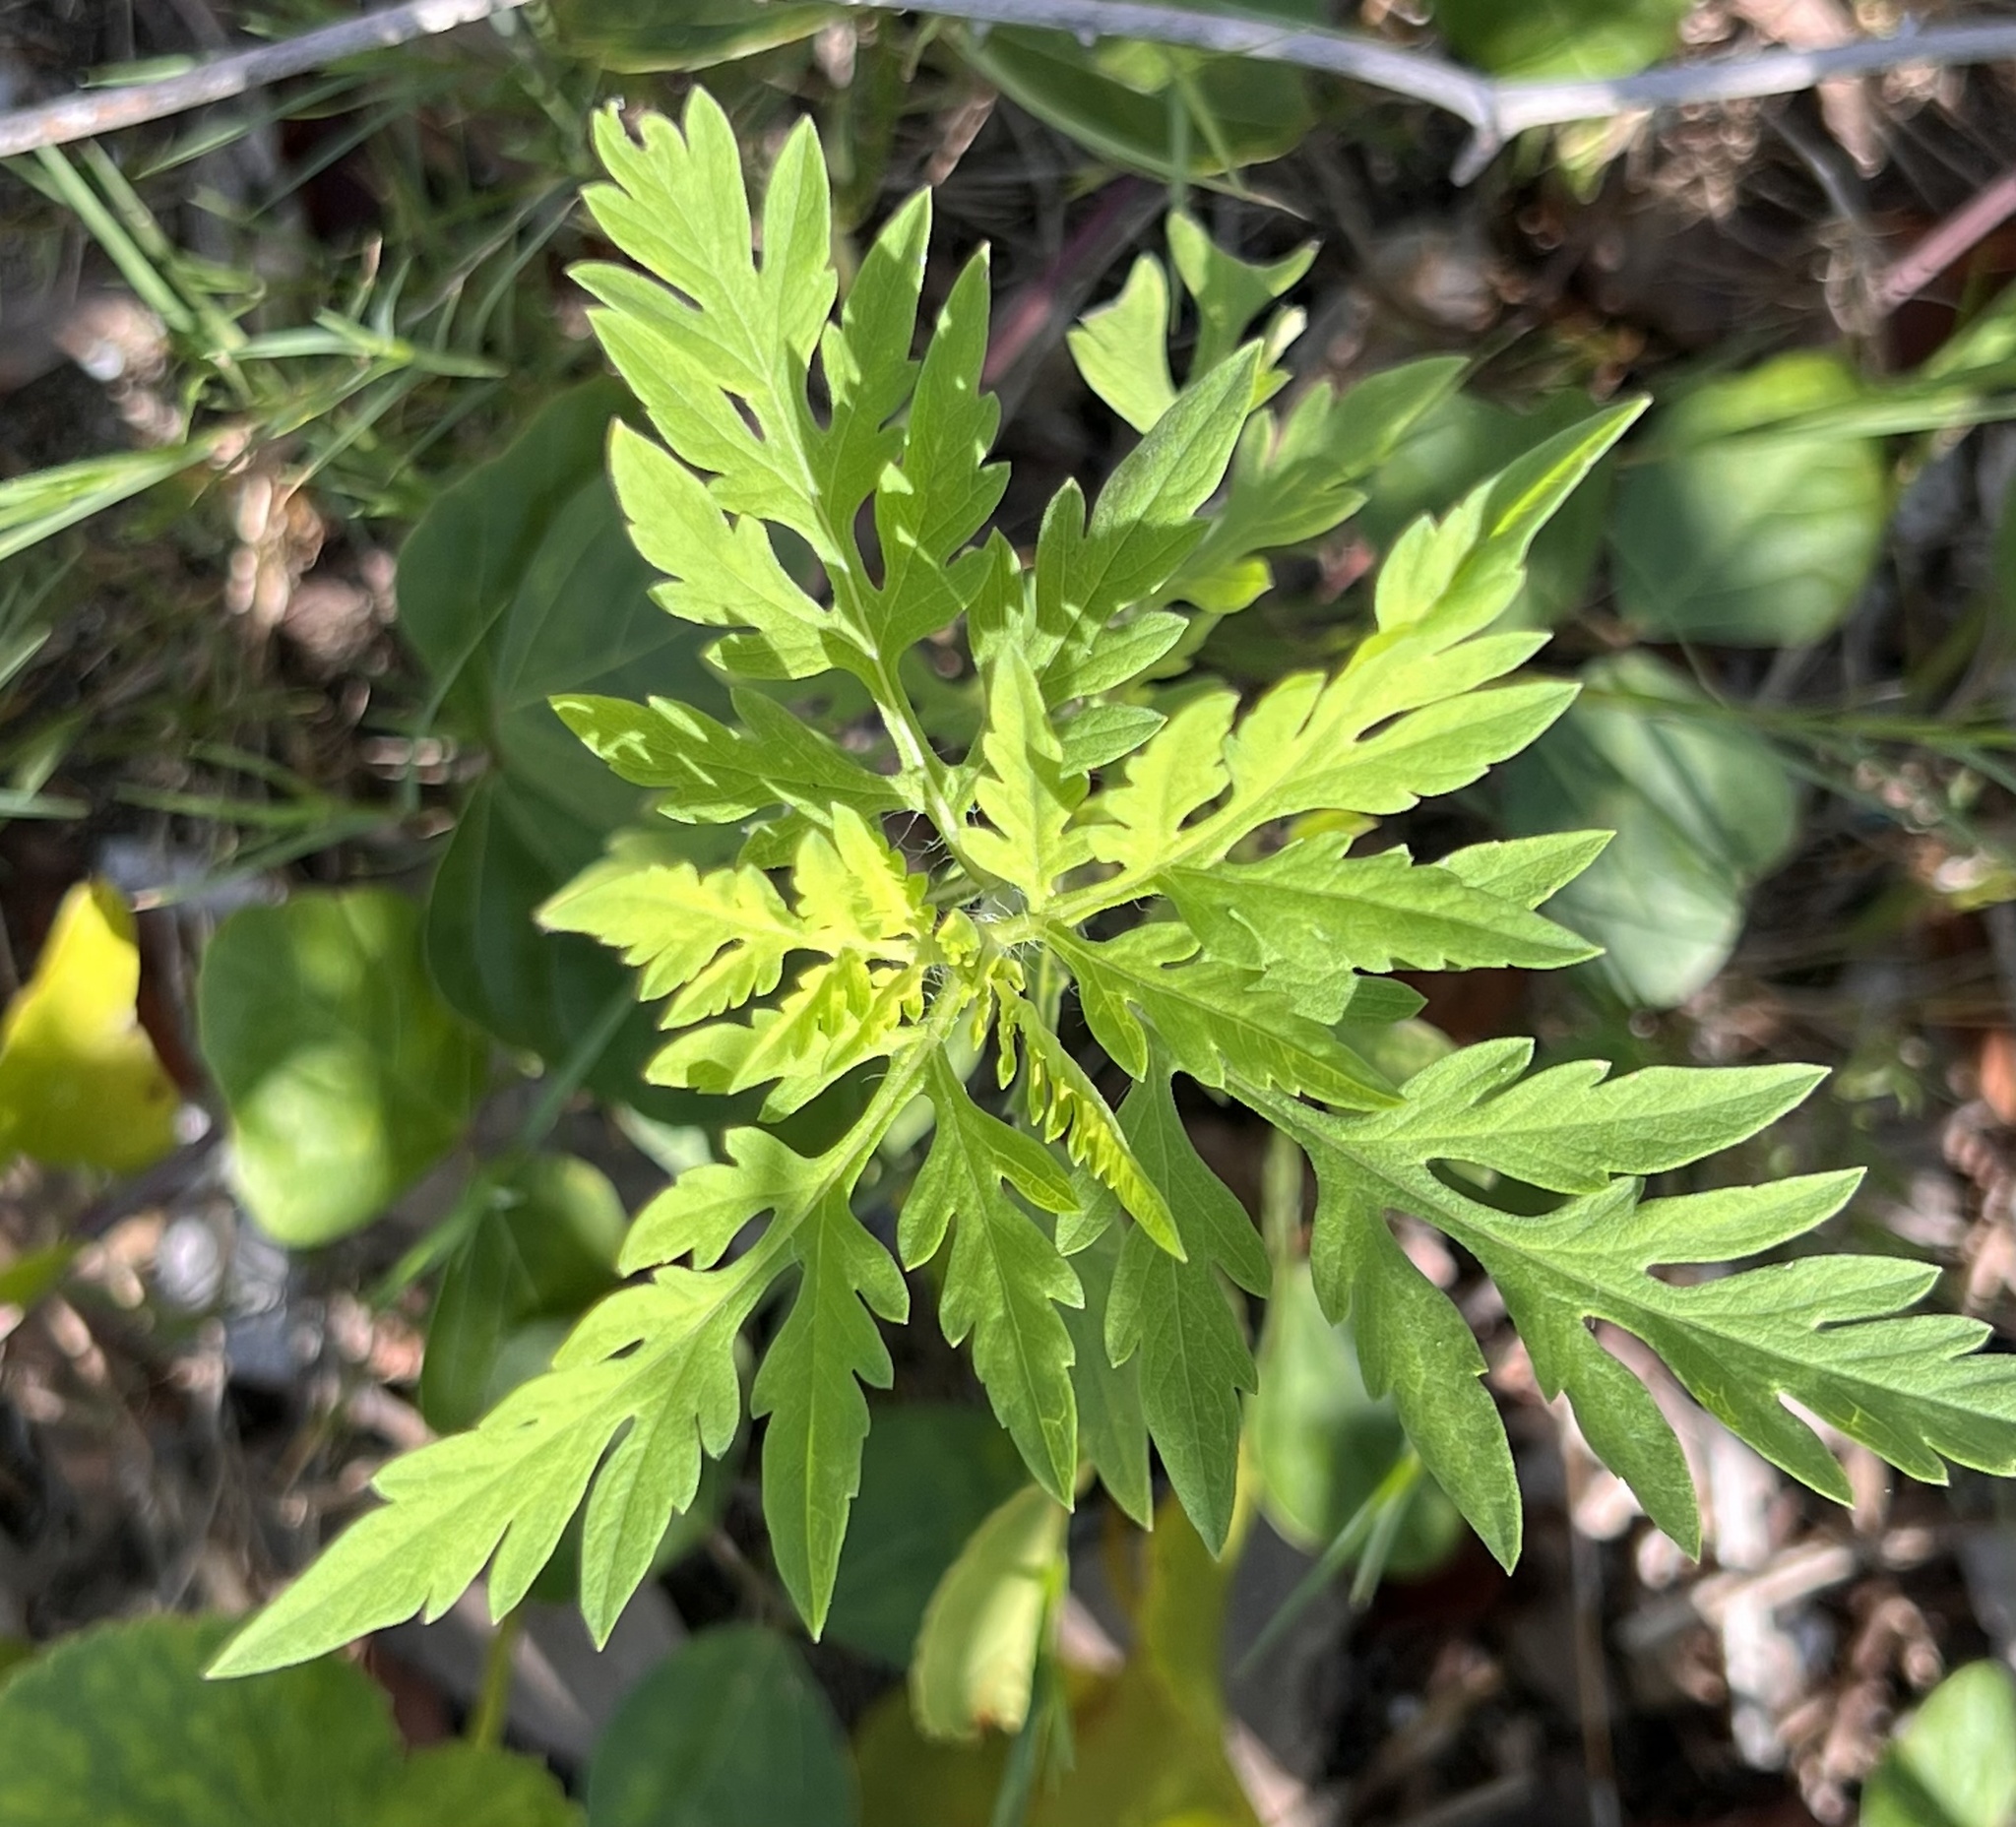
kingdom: Plantae
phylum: Tracheophyta
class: Magnoliopsida
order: Asterales
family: Asteraceae
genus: Ambrosia
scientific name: Ambrosia artemisiifolia
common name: Annual ragweed
